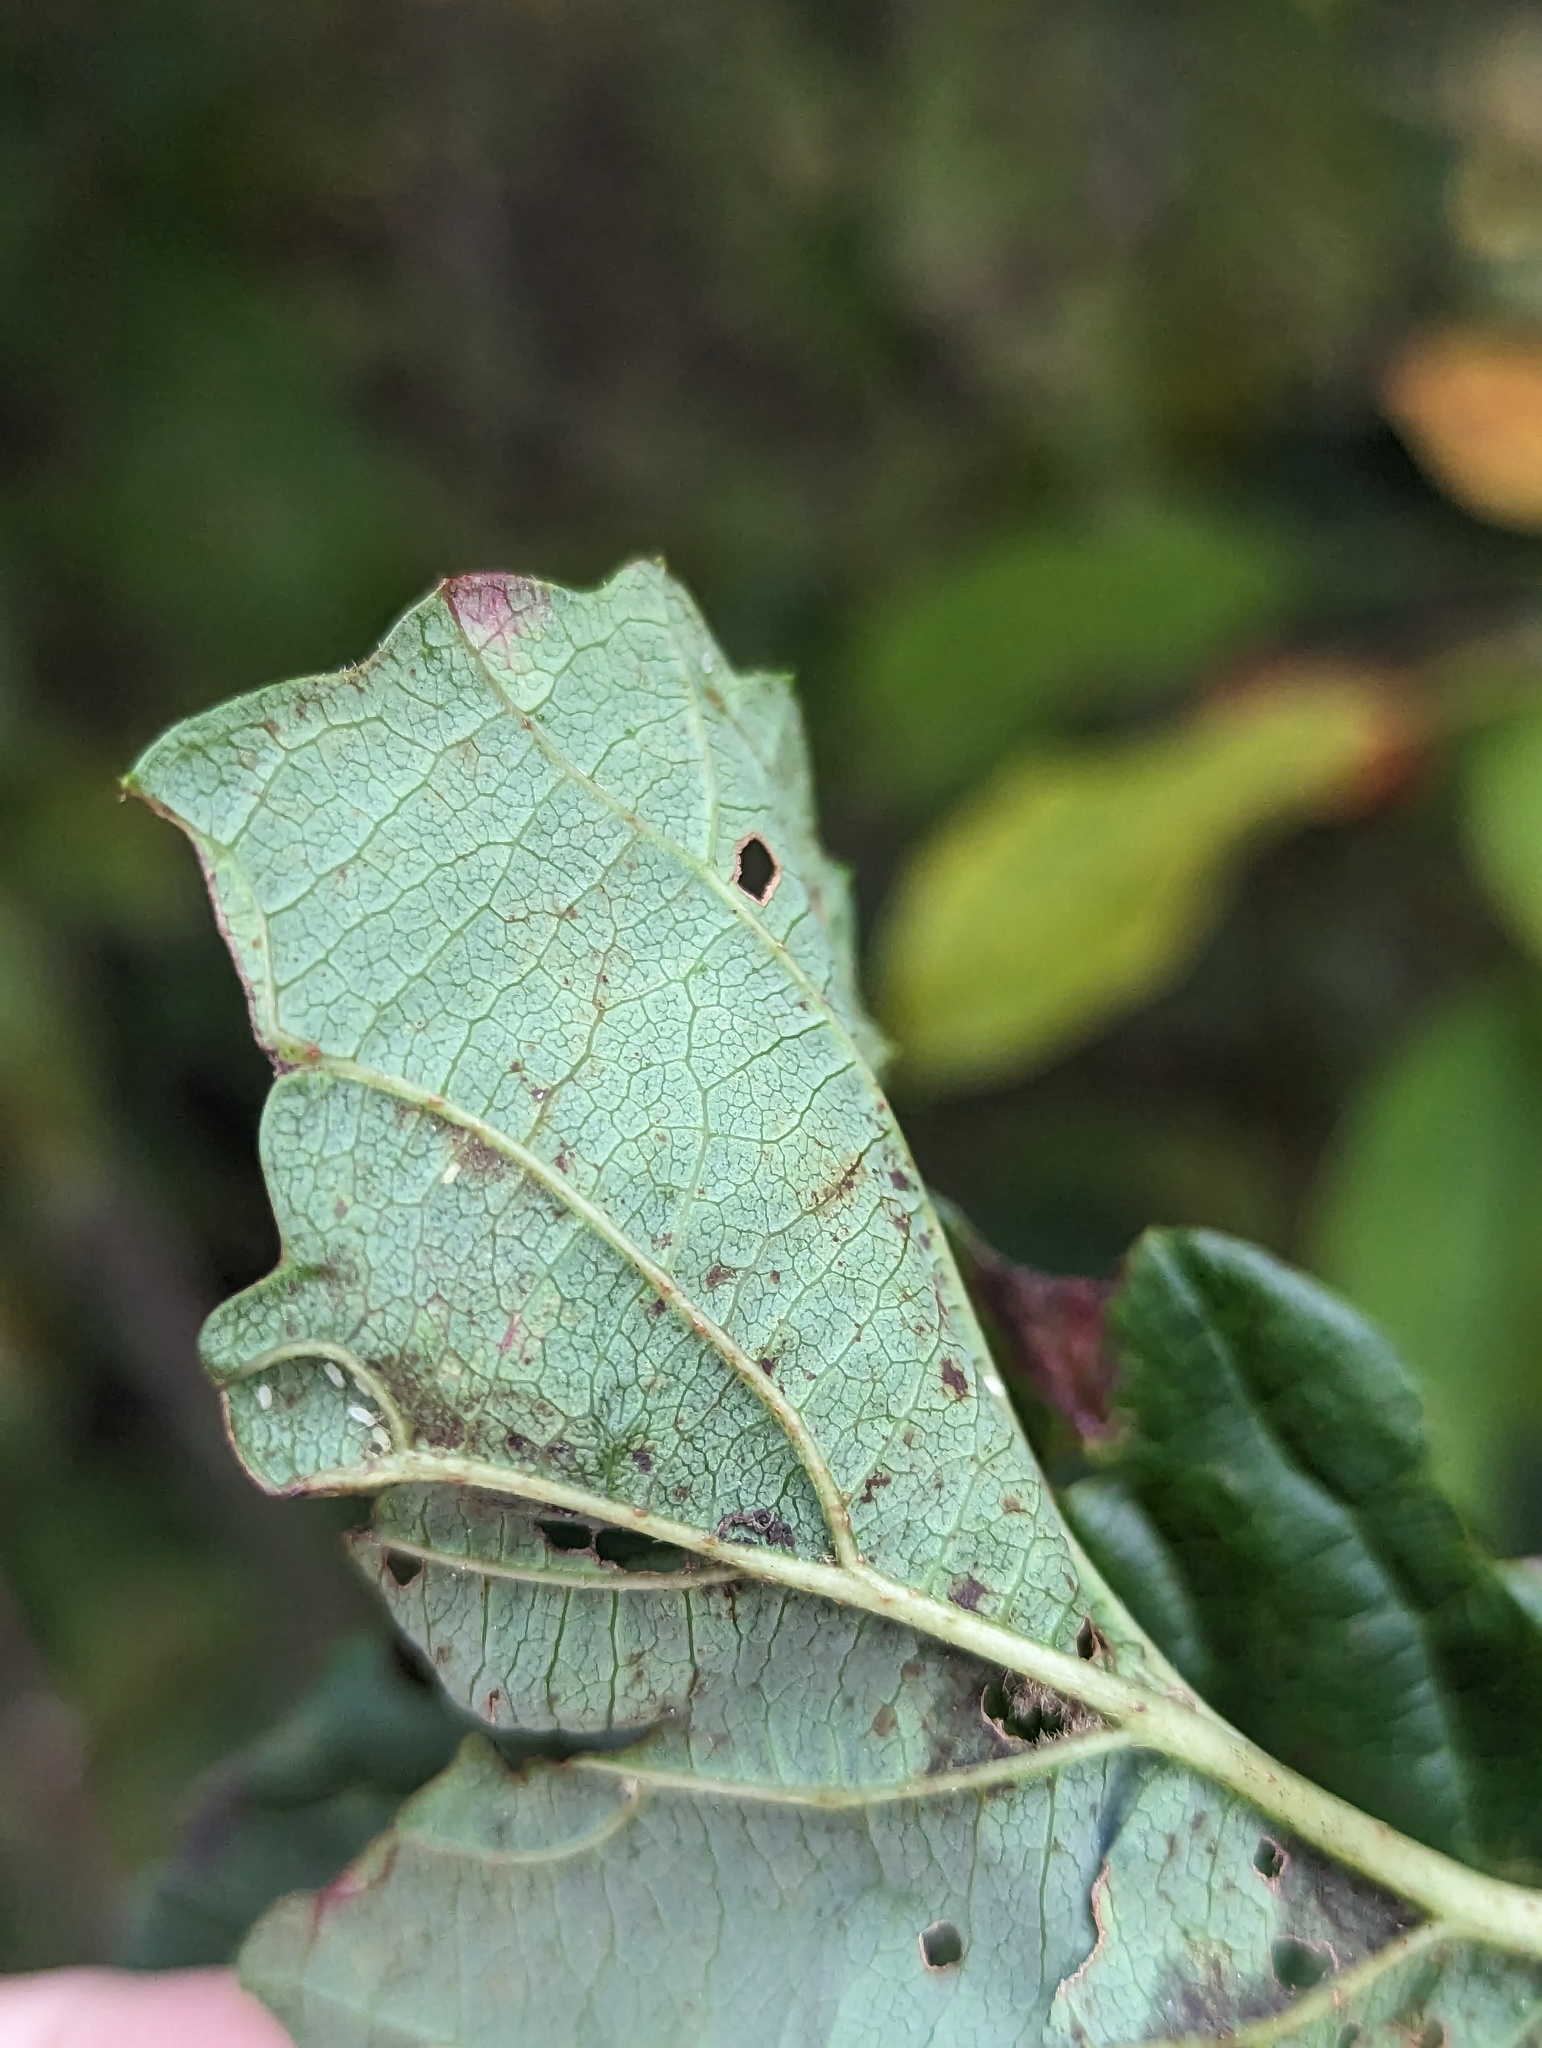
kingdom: Animalia
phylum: Arthropoda
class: Insecta
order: Lepidoptera
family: Gracillariidae
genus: Marmara
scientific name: Marmara viburnella
